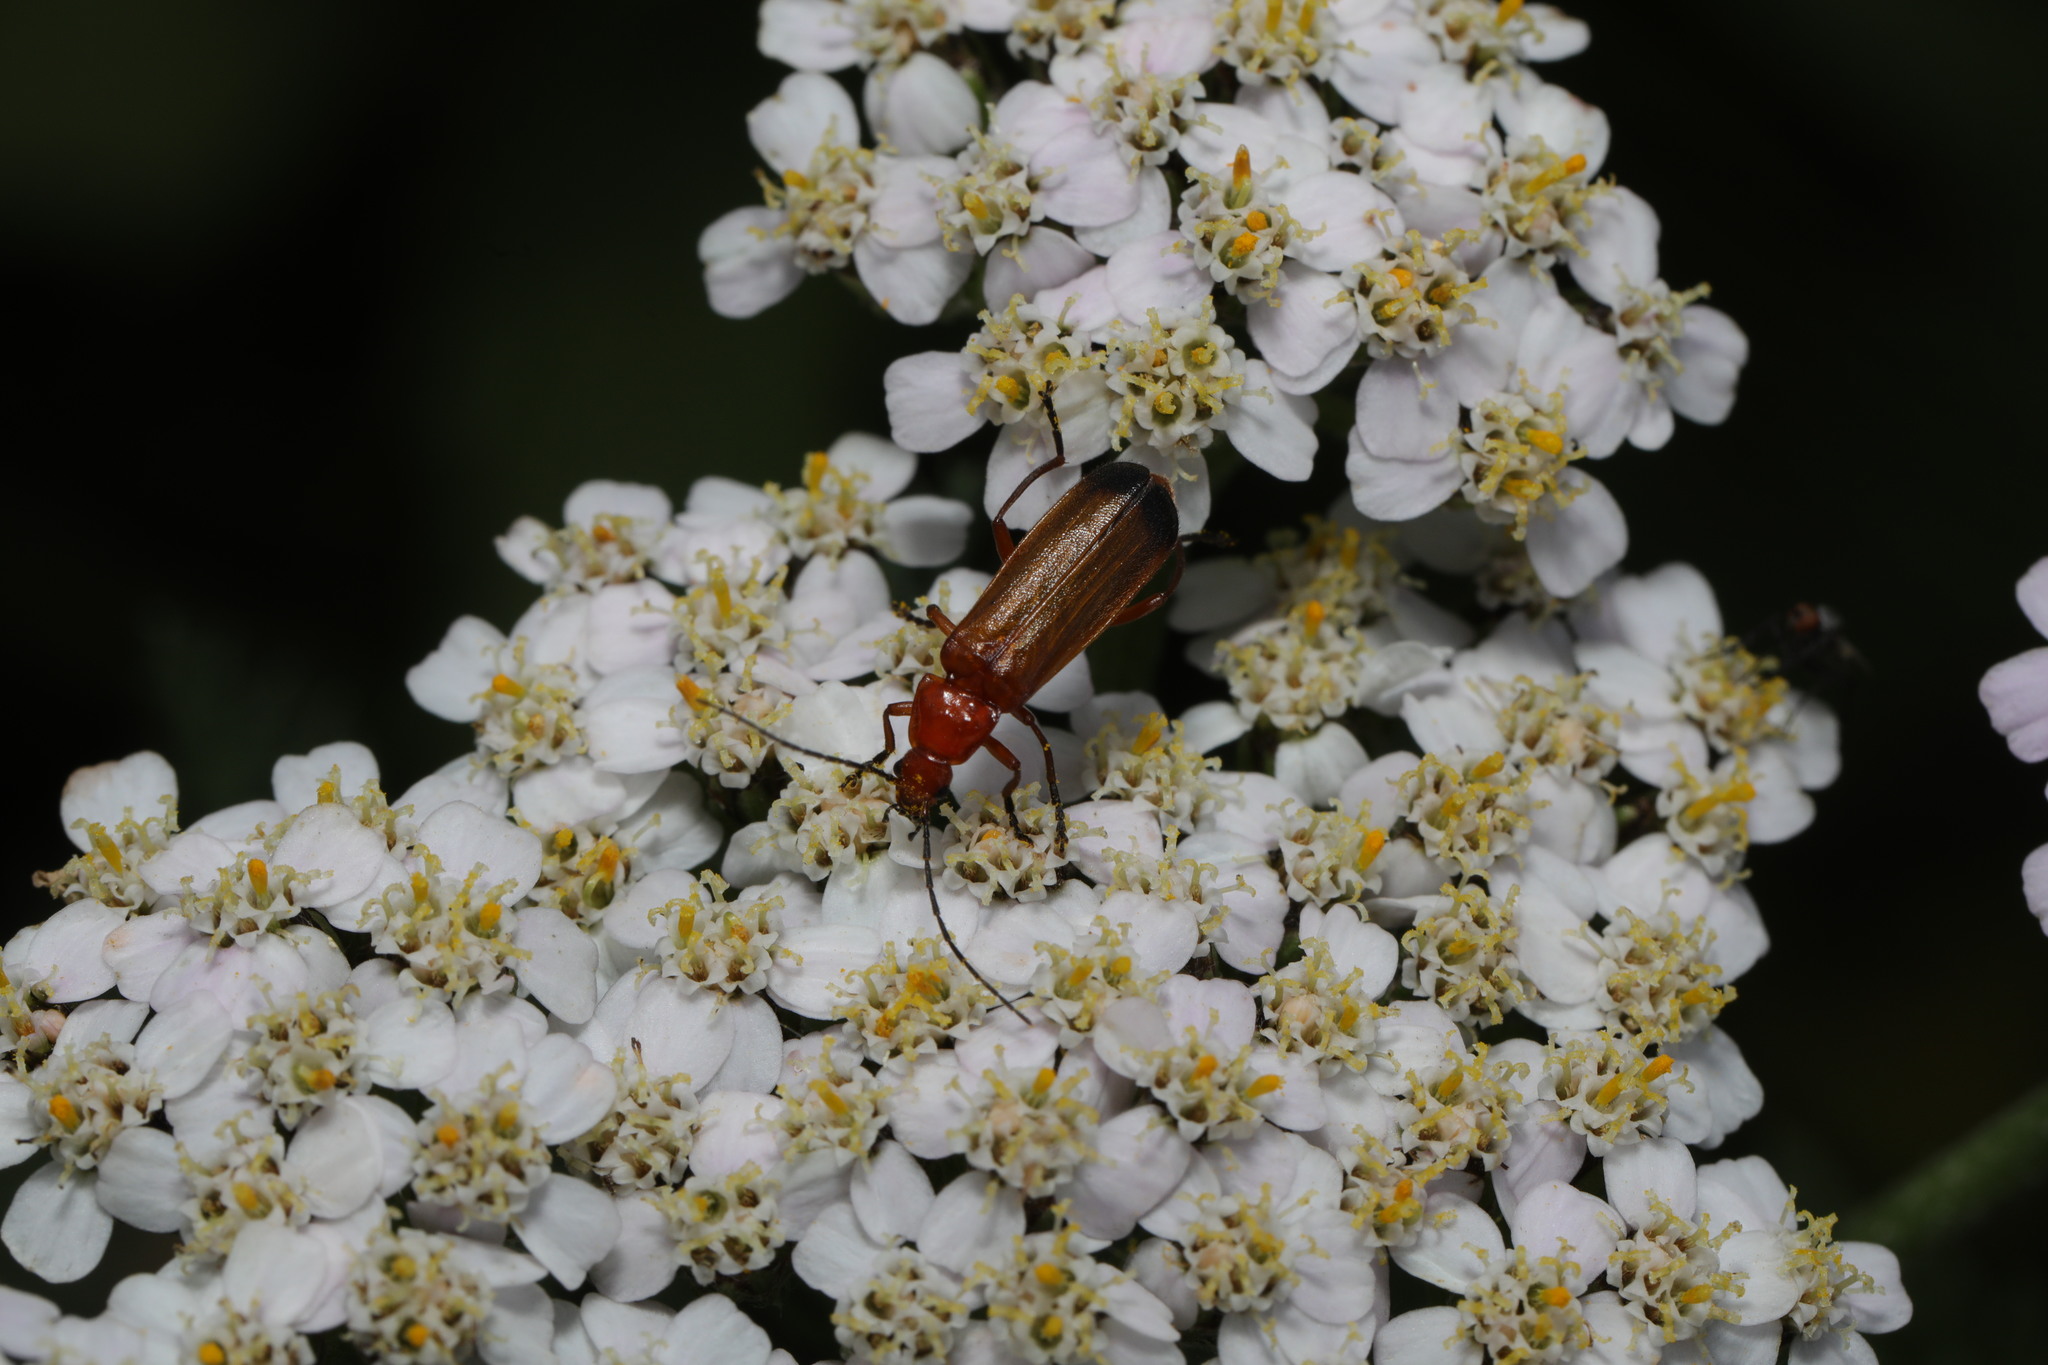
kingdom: Animalia
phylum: Arthropoda
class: Insecta
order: Coleoptera
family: Cantharidae
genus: Rhagonycha
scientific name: Rhagonycha fulva
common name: Common red soldier beetle
